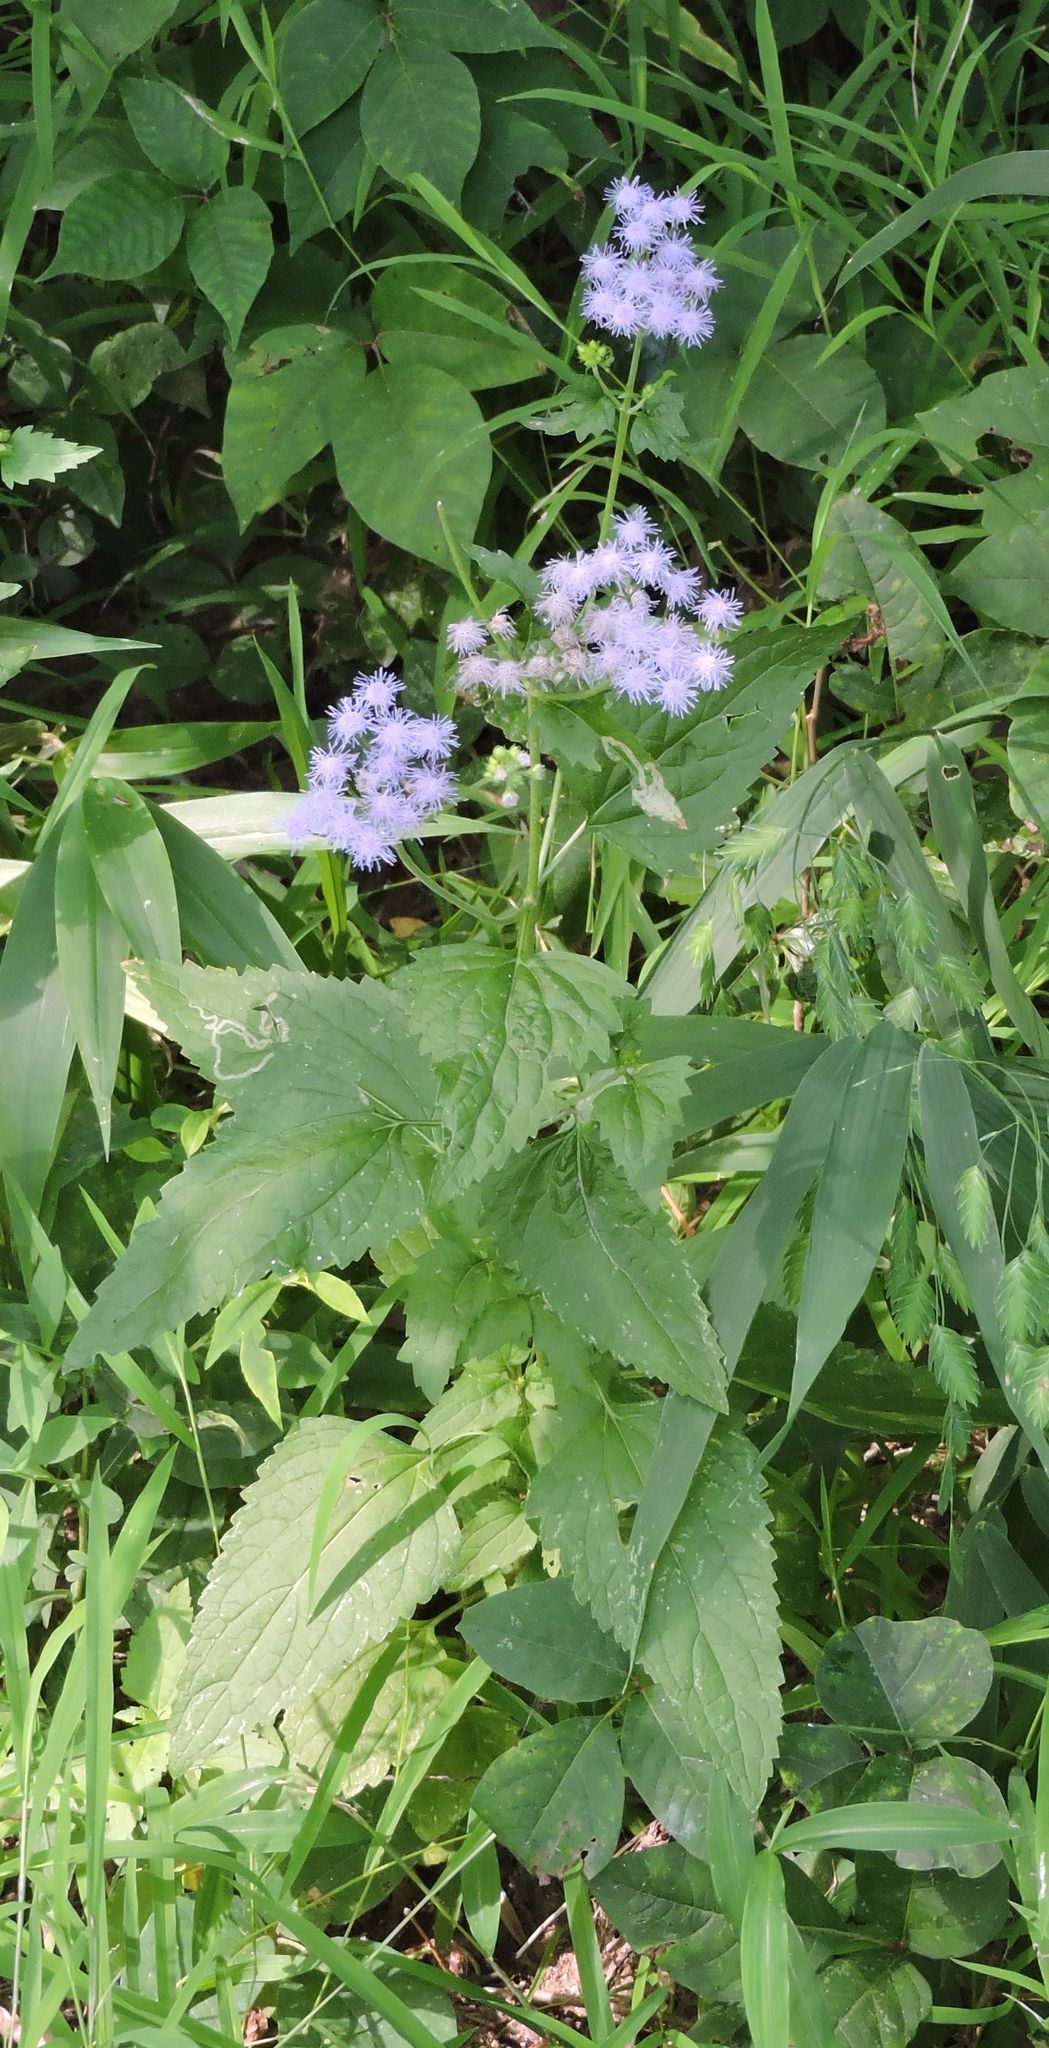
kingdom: Plantae
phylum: Tracheophyta
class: Magnoliopsida
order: Asterales
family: Asteraceae
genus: Conoclinium
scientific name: Conoclinium coelestinum
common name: Blue mistflower
